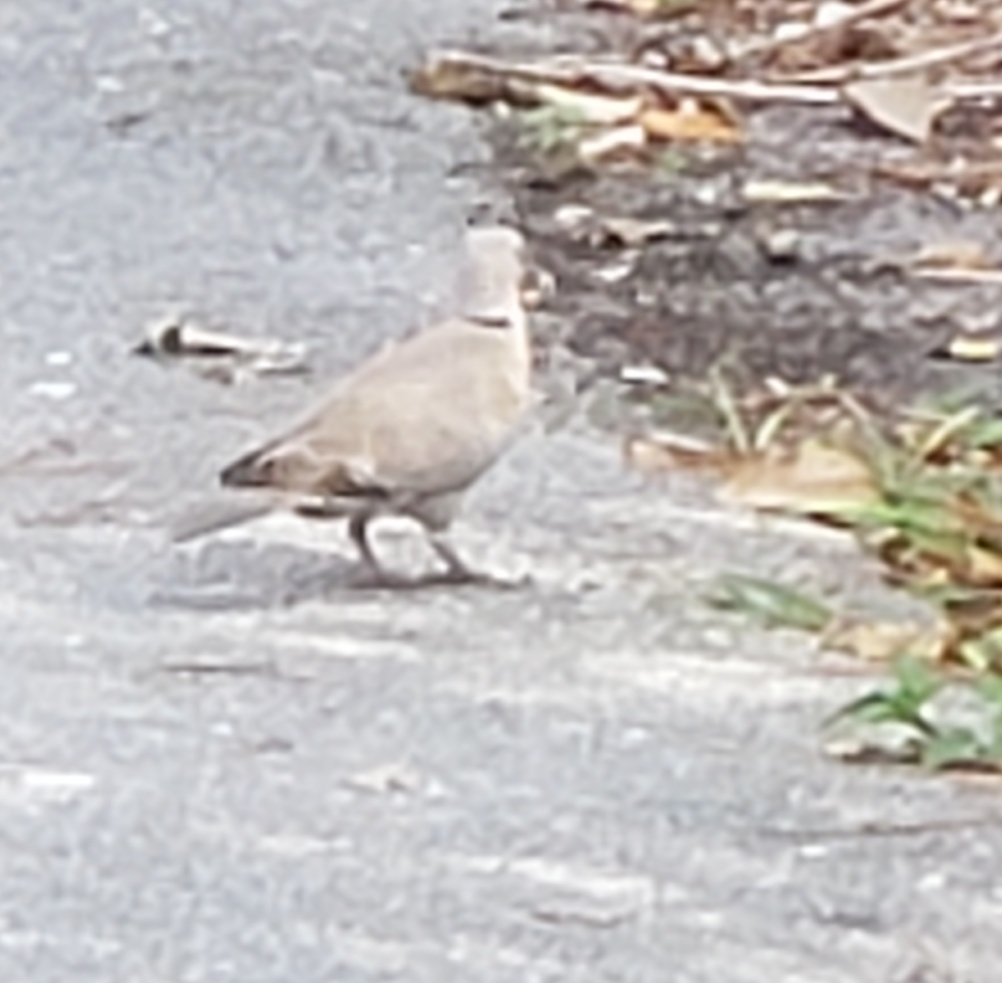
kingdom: Animalia
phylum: Chordata
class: Aves
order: Columbiformes
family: Columbidae
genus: Streptopelia
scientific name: Streptopelia decaocto
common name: Eurasian collared dove
